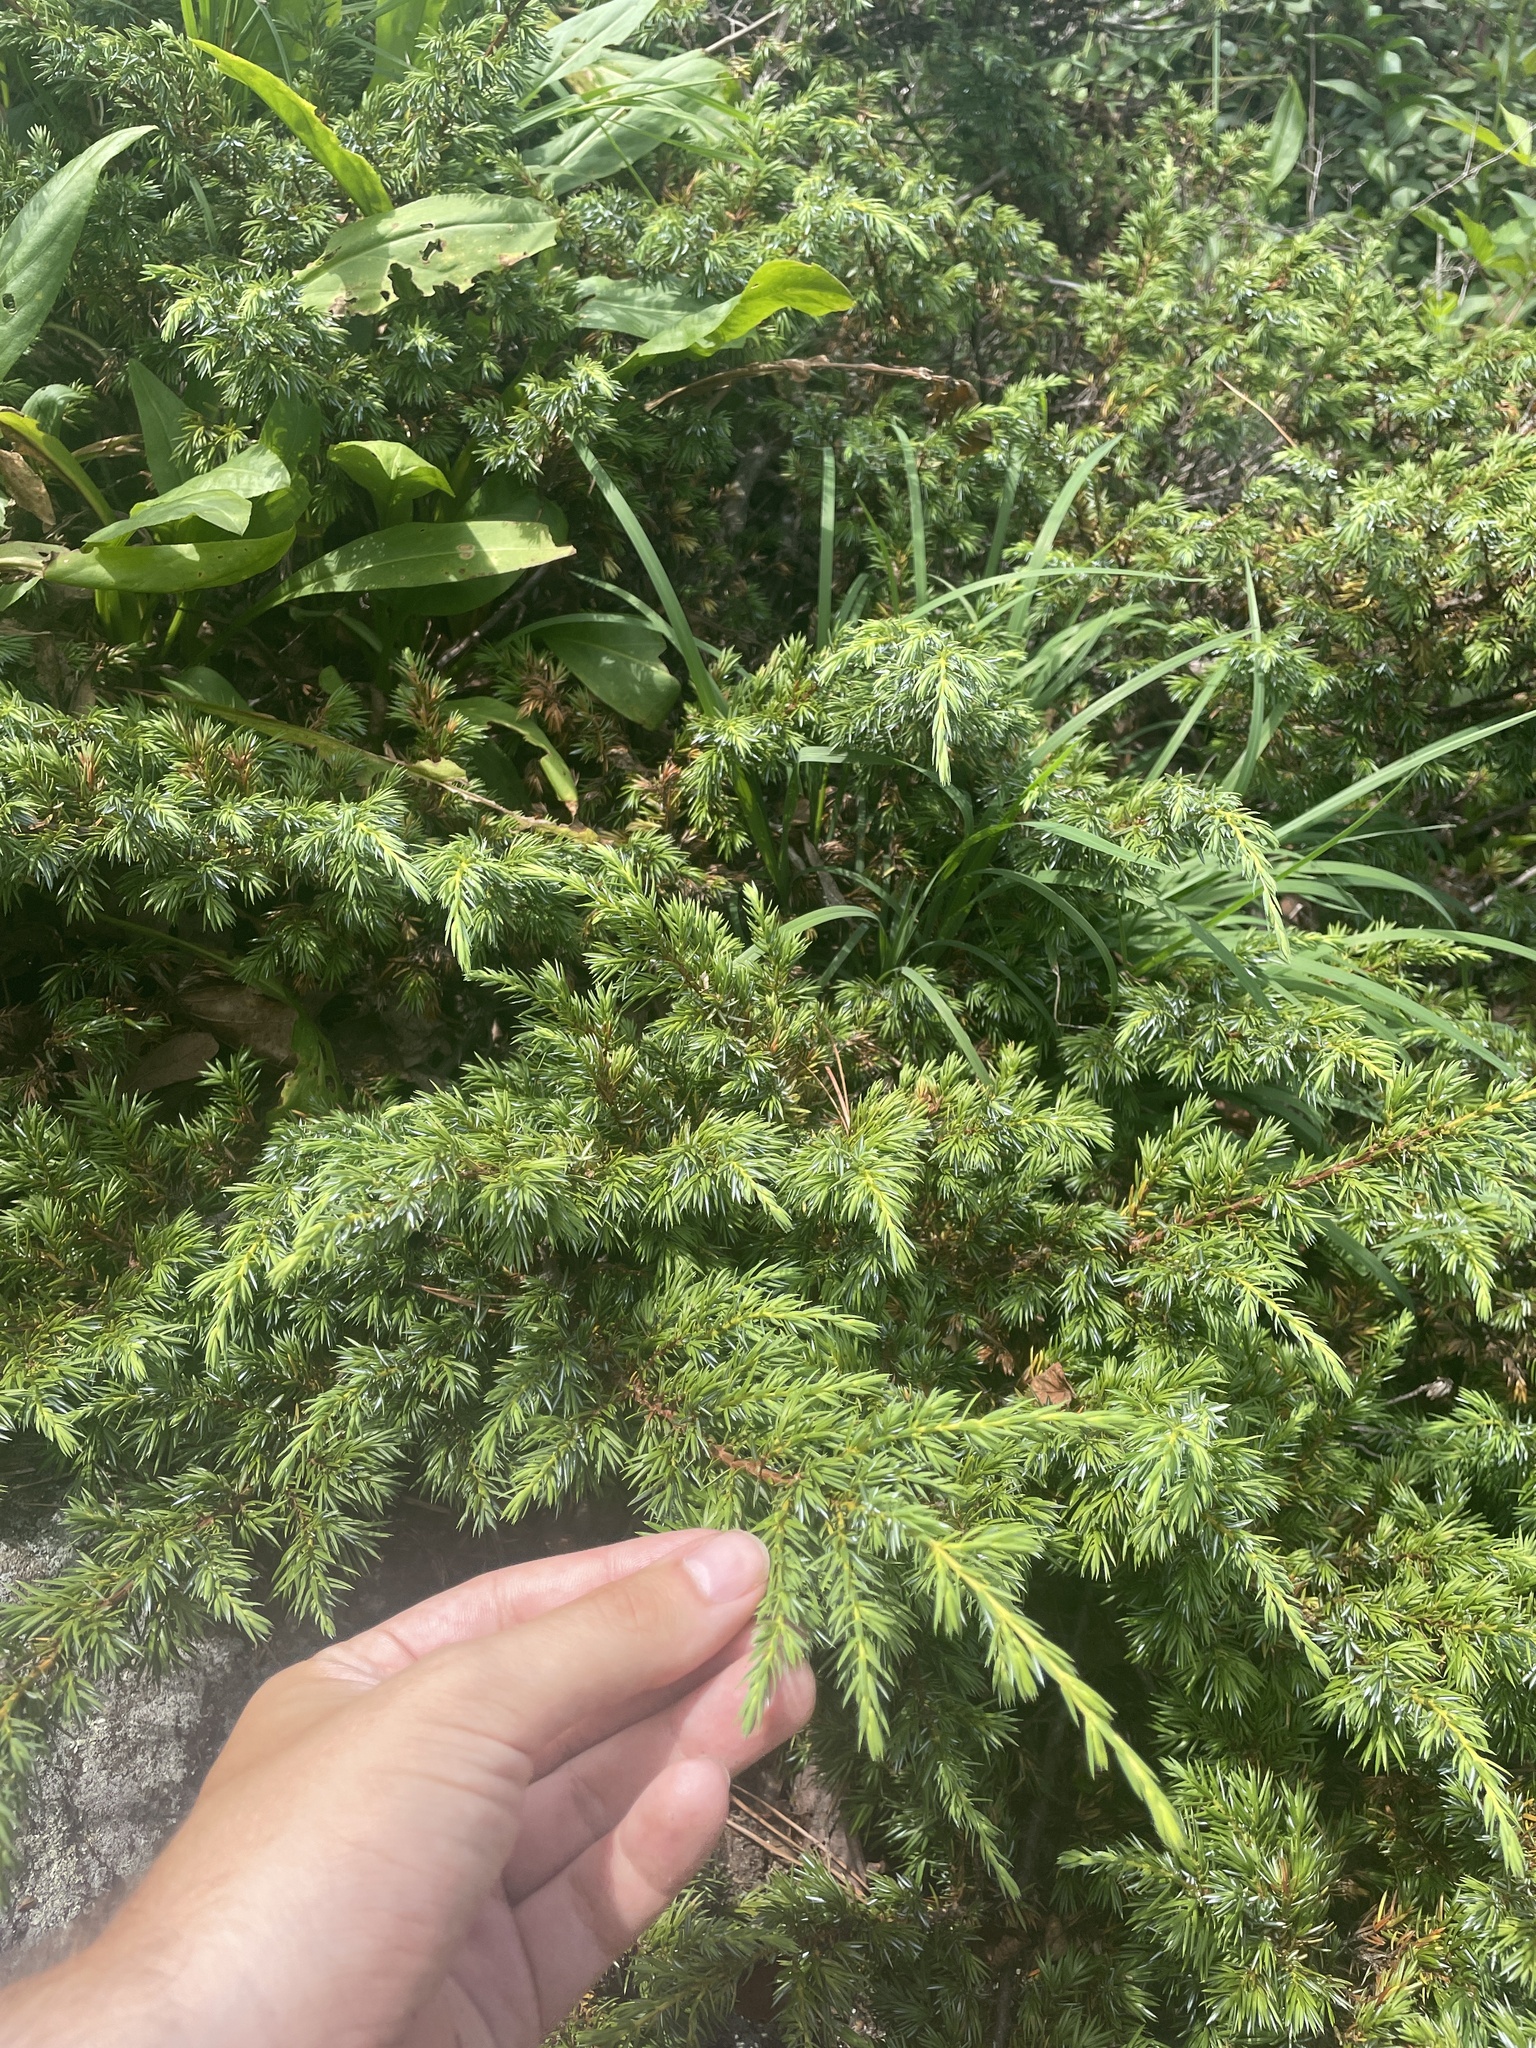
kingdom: Plantae
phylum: Tracheophyta
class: Pinopsida
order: Pinales
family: Cupressaceae
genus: Juniperus
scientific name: Juniperus communis
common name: Common juniper
